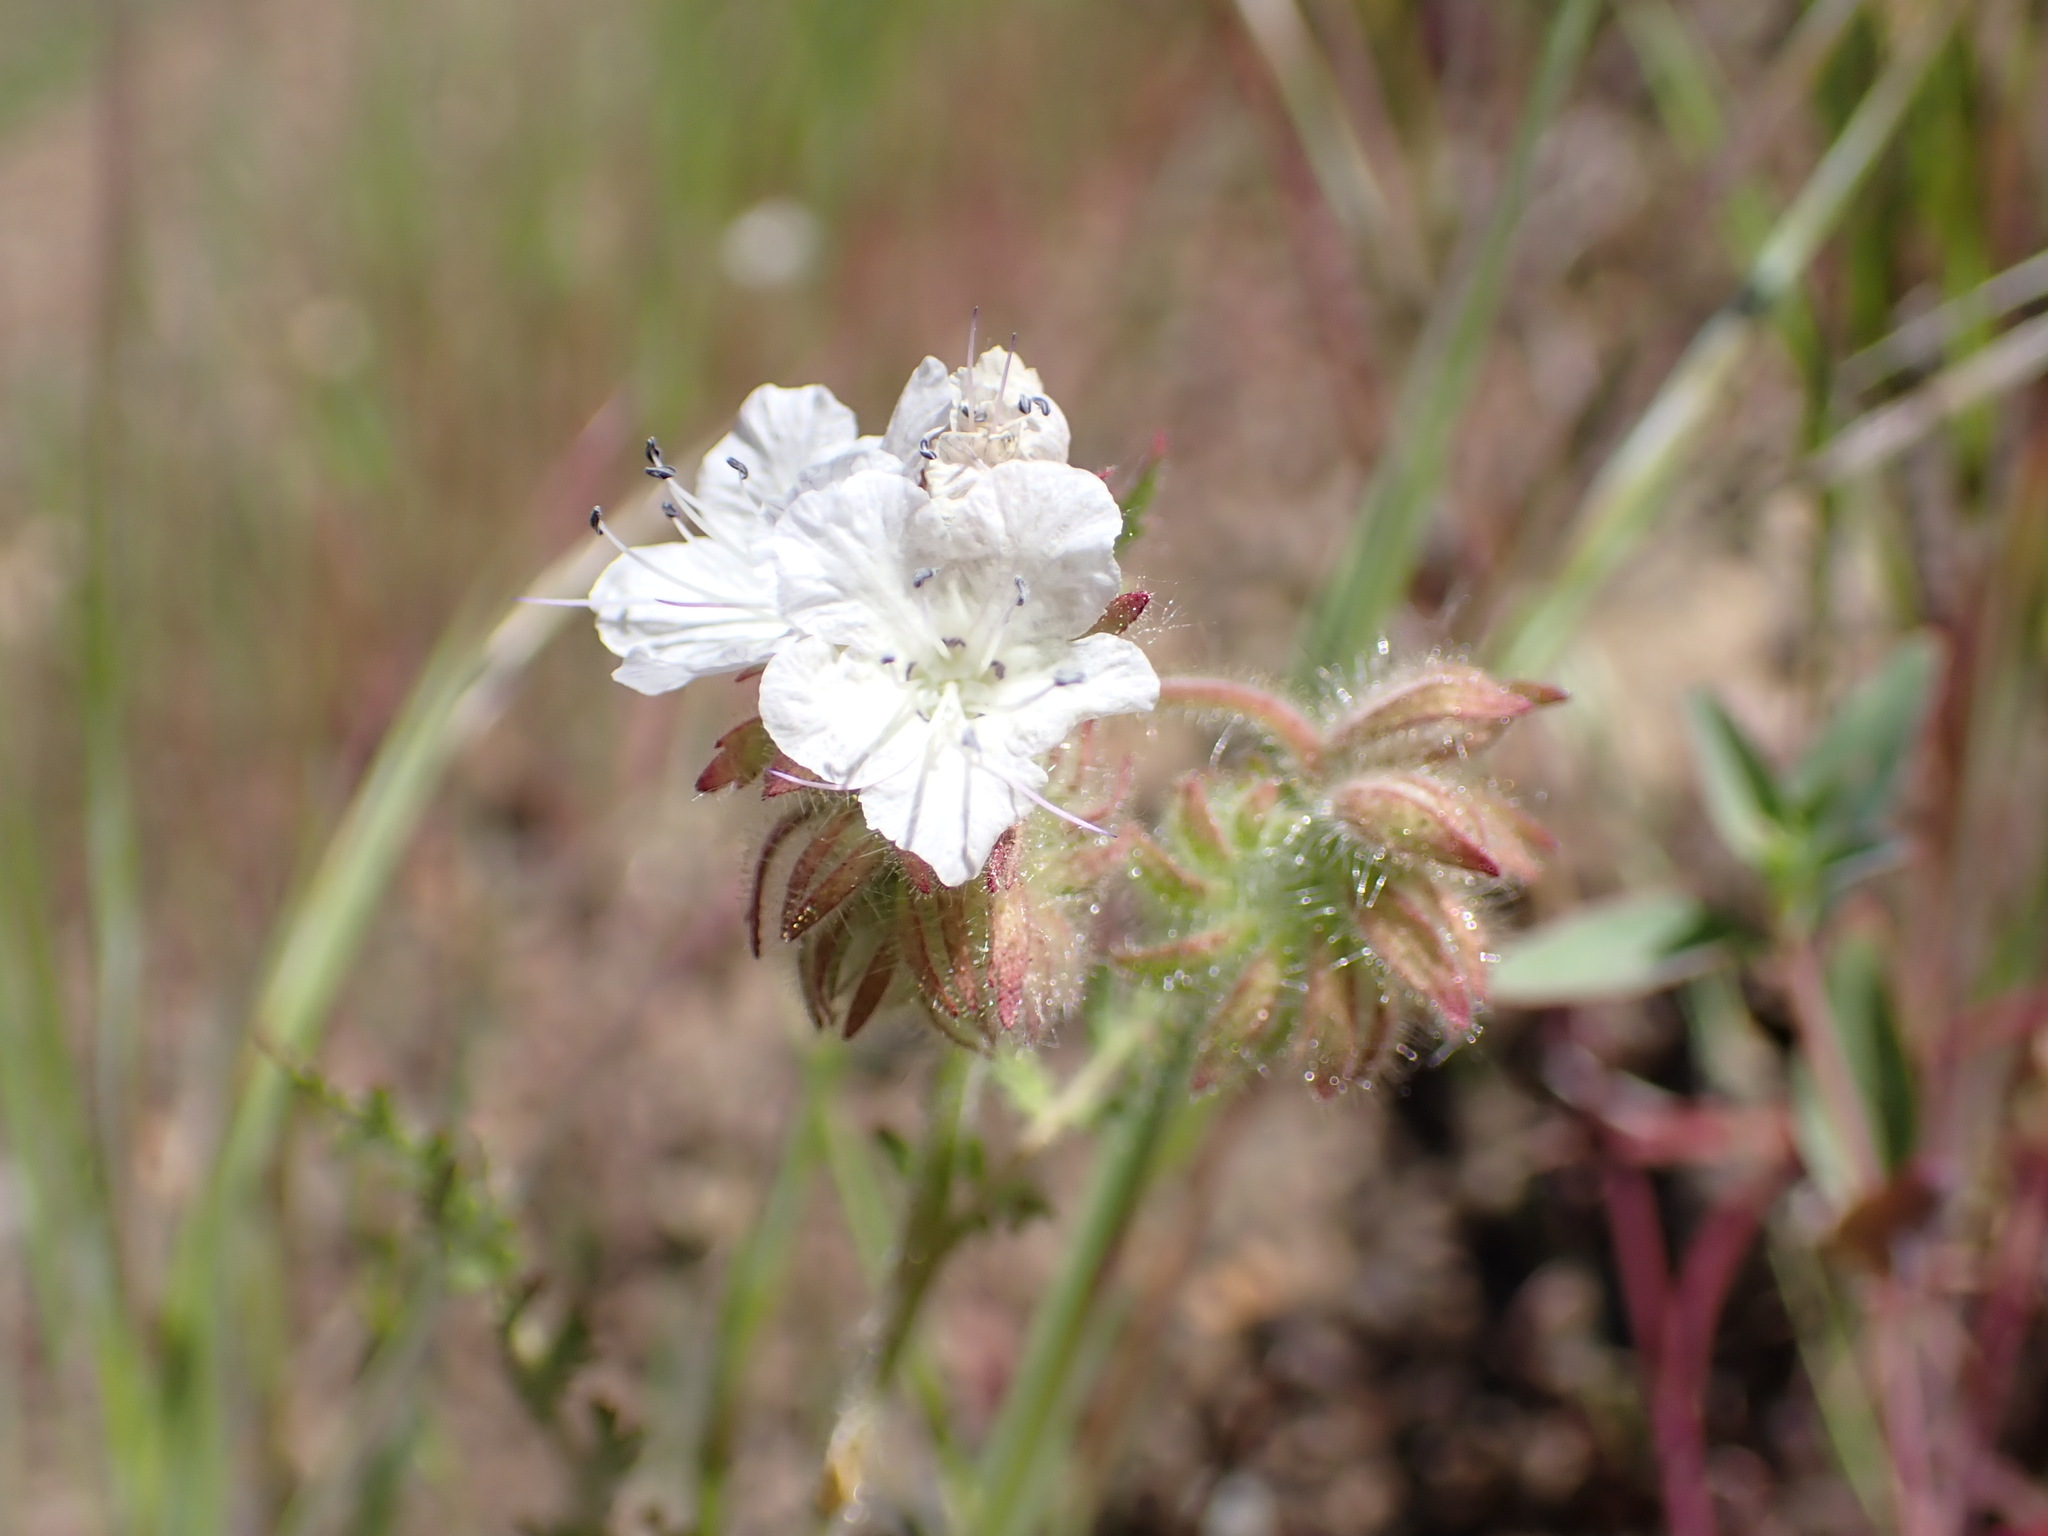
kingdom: Plantae
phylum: Tracheophyta
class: Magnoliopsida
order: Boraginales
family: Hydrophyllaceae
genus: Phacelia
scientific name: Phacelia distans
